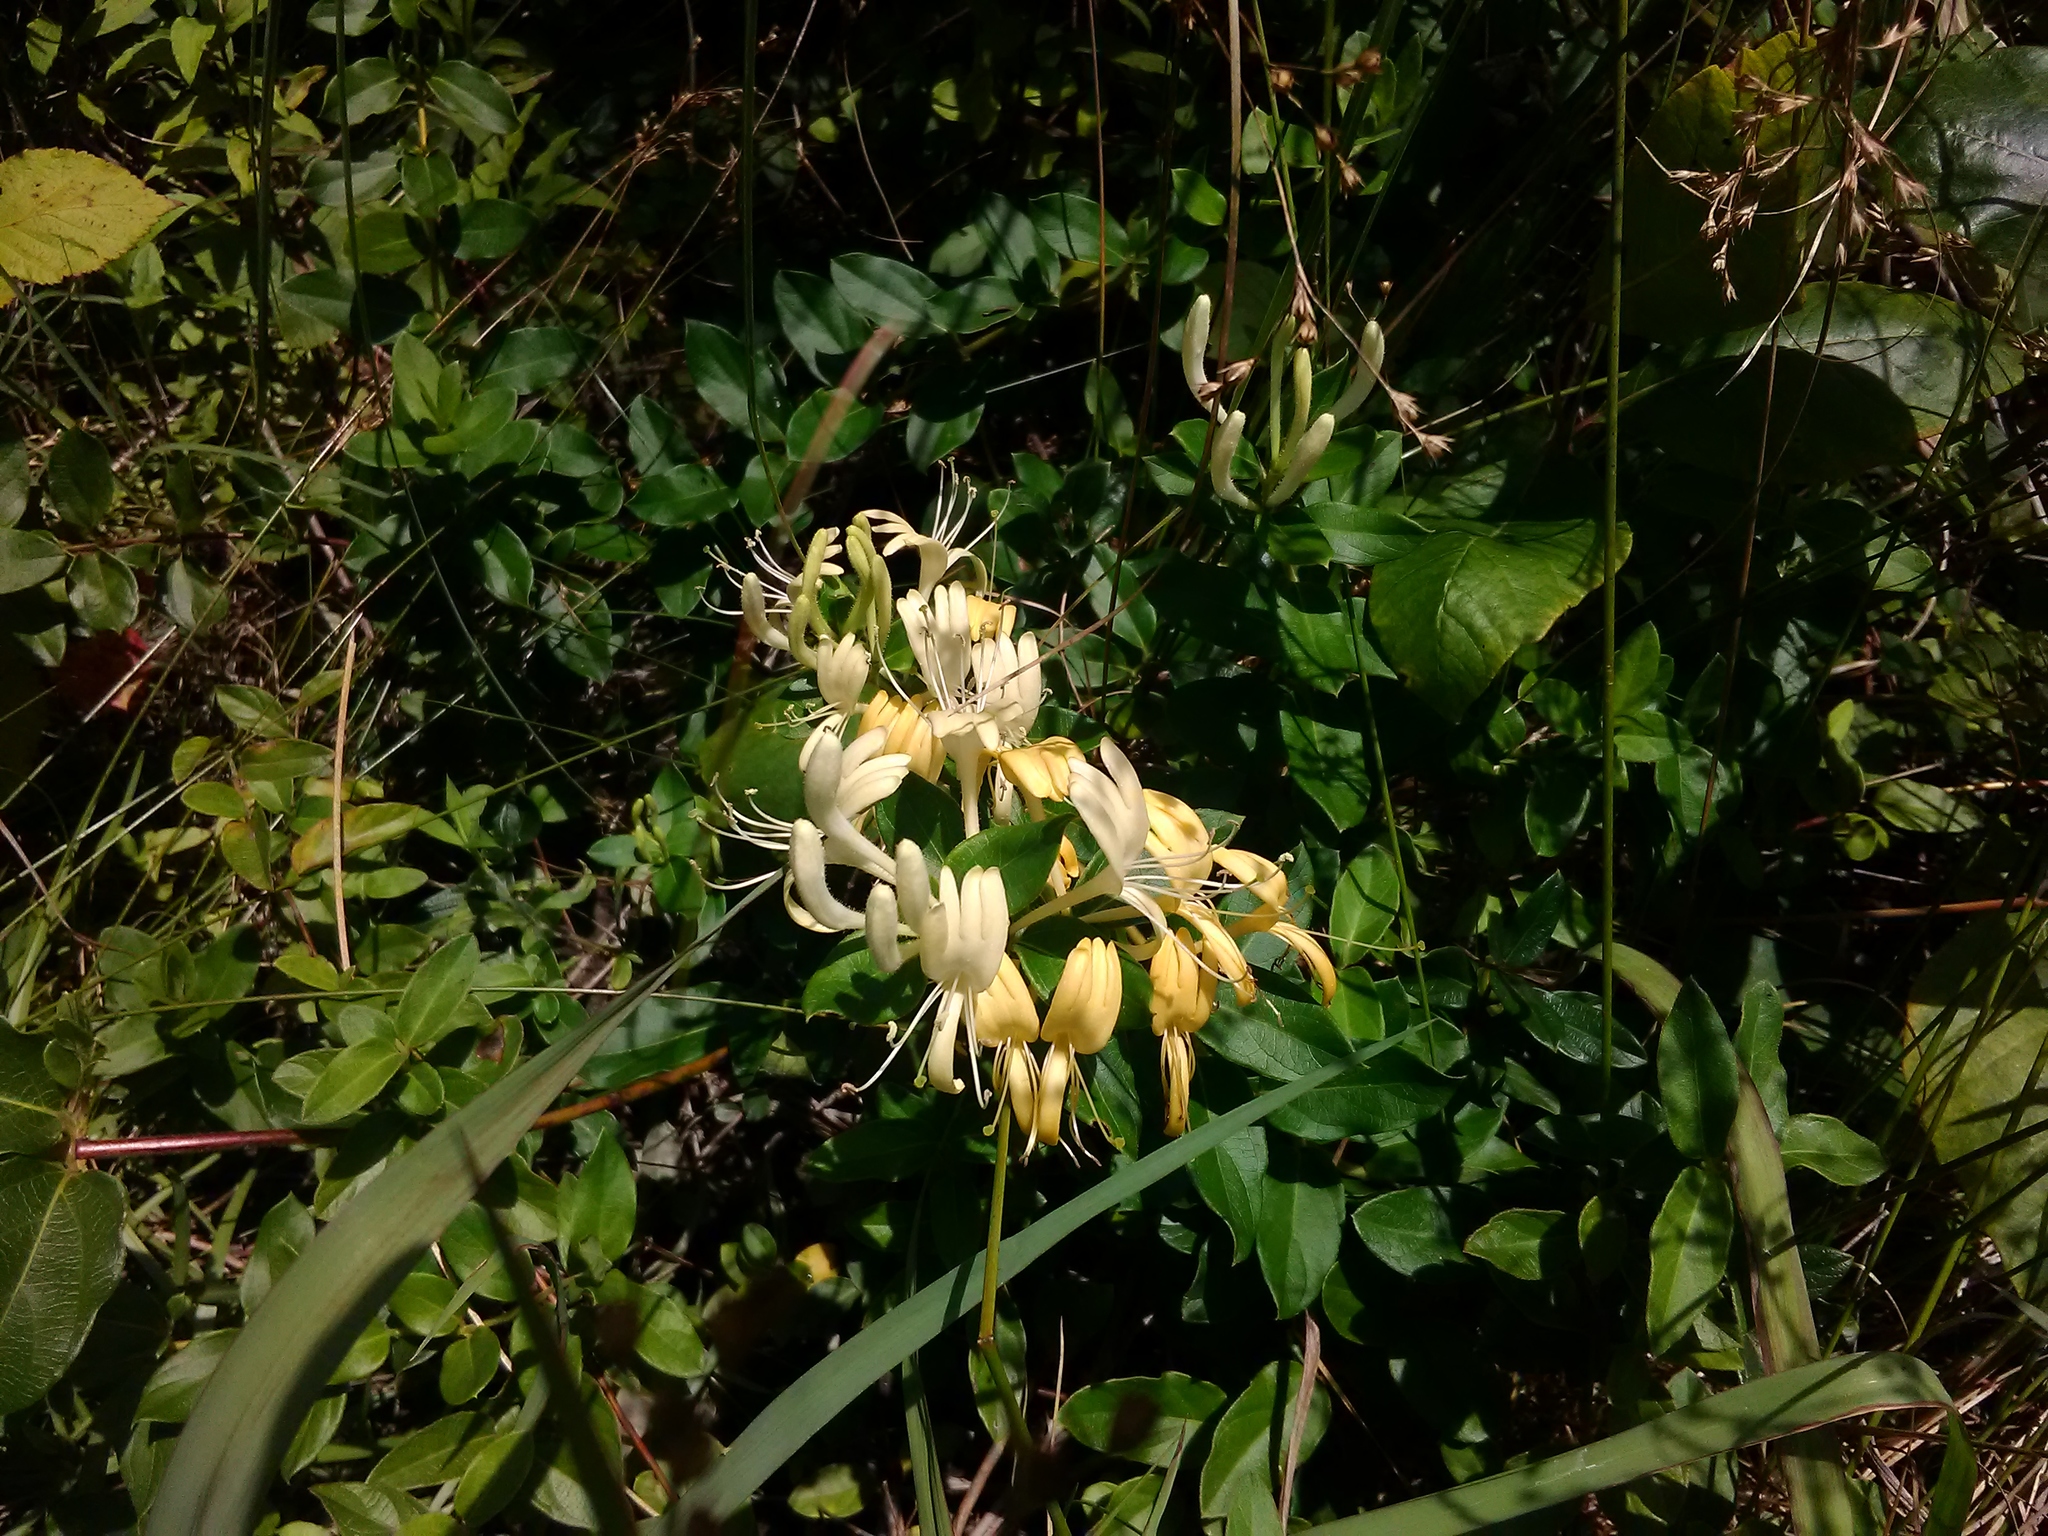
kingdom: Plantae
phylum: Tracheophyta
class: Magnoliopsida
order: Dipsacales
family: Caprifoliaceae
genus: Lonicera
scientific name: Lonicera japonica
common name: Japanese honeysuckle
